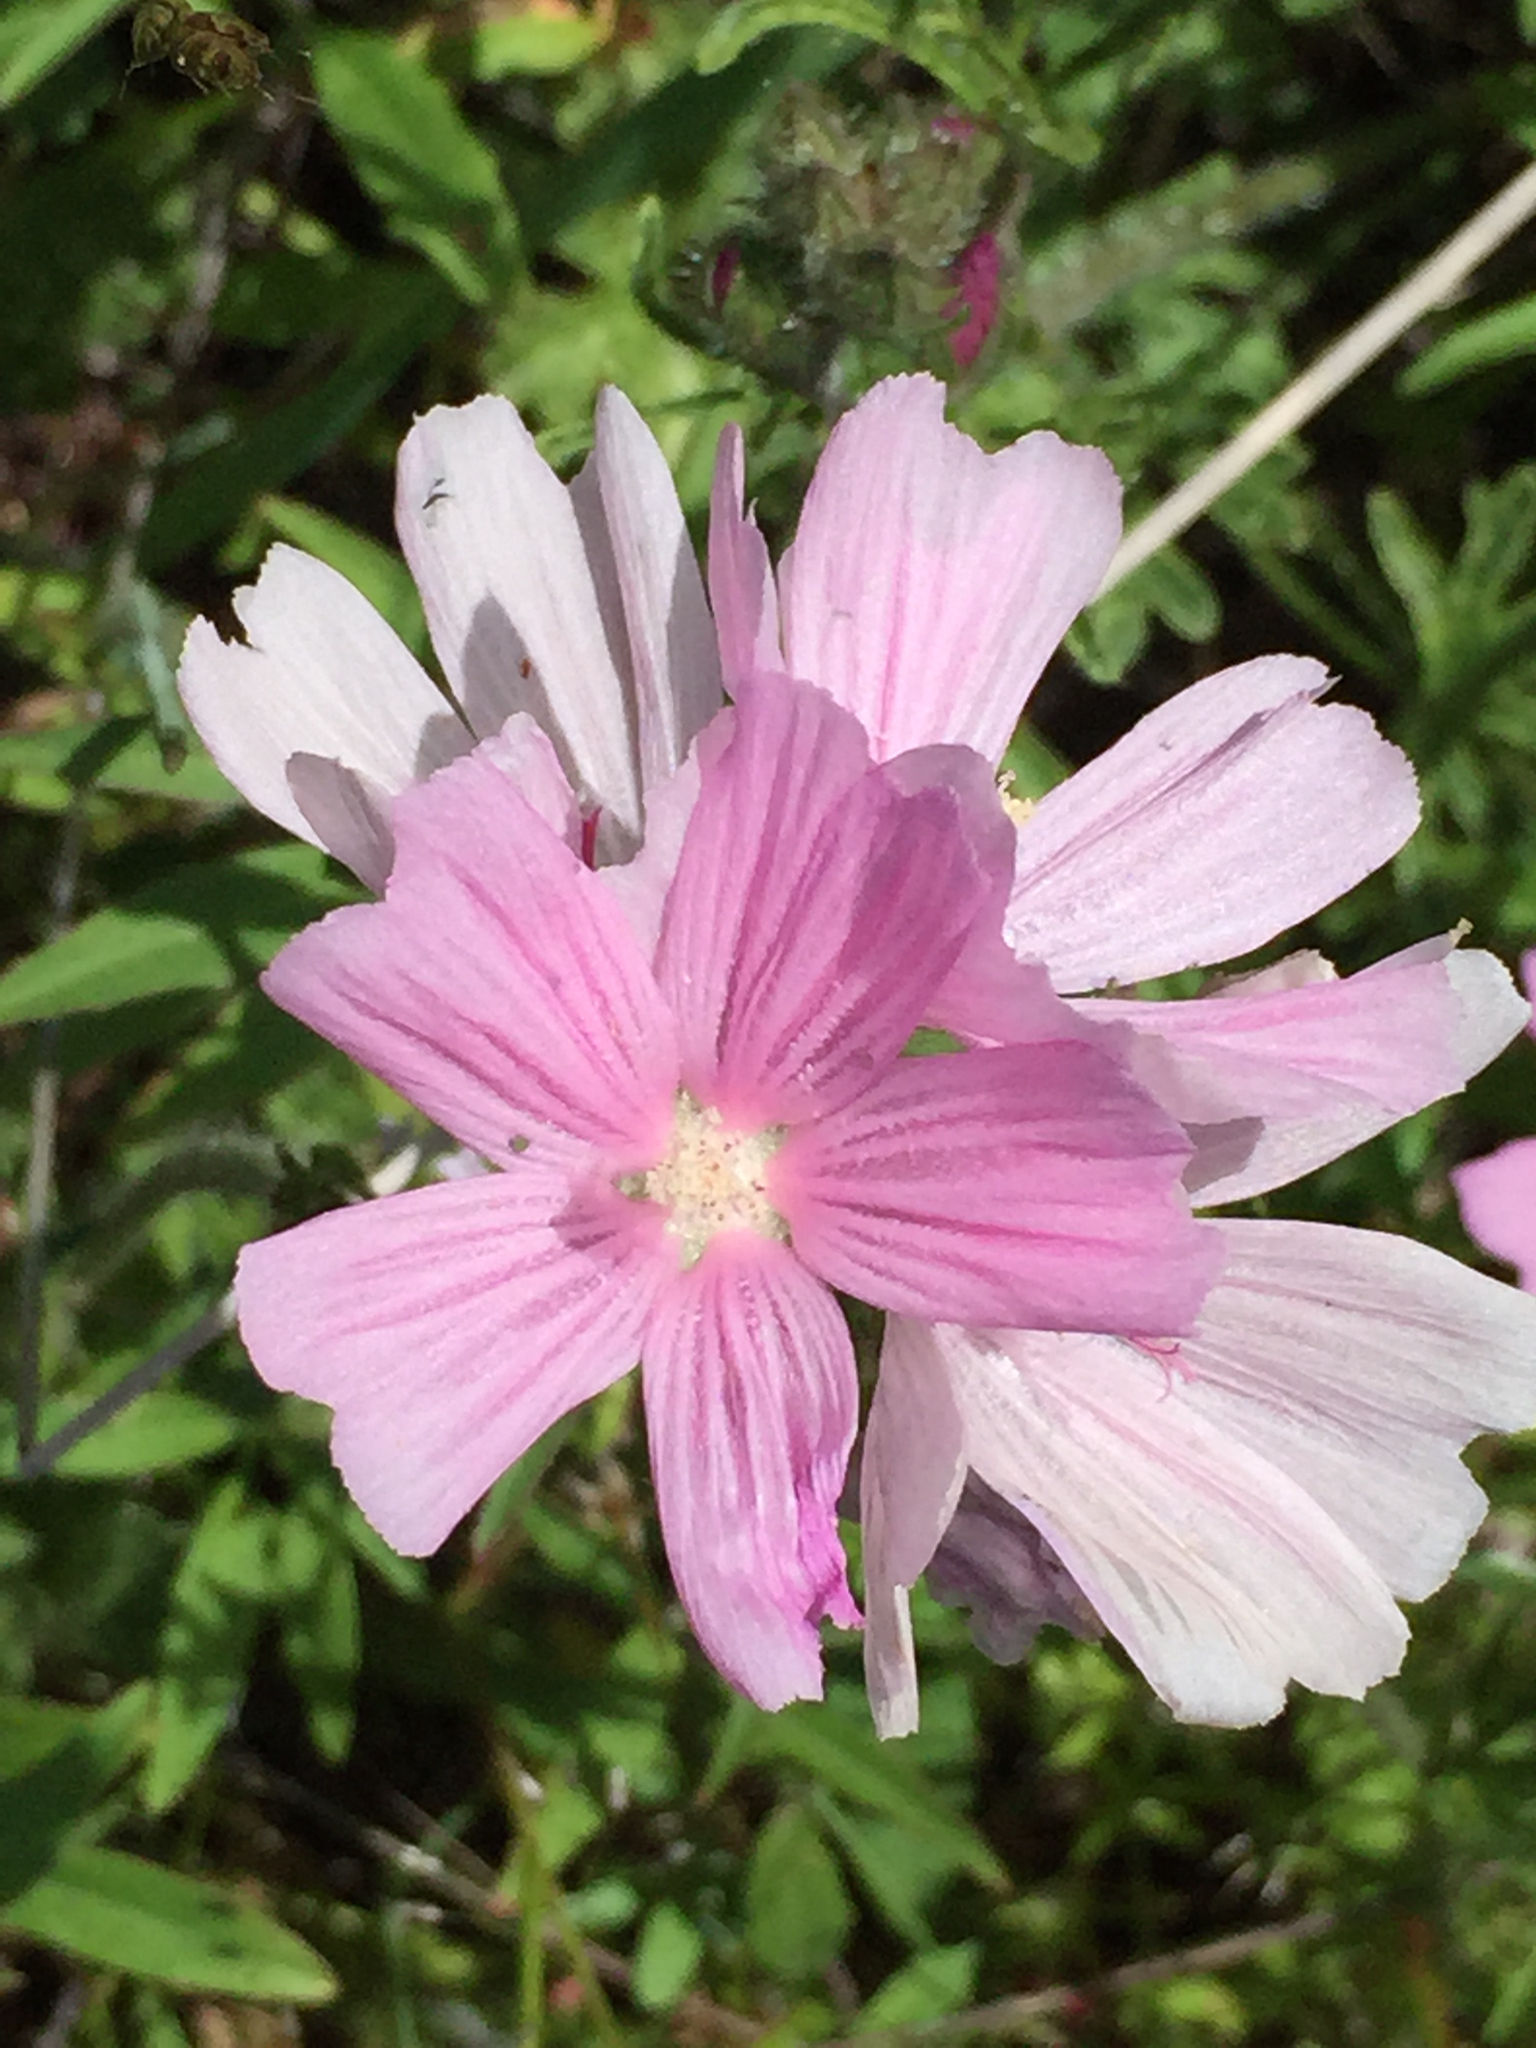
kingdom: Plantae
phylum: Tracheophyta
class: Magnoliopsida
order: Malvales
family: Malvaceae
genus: Sidalcea
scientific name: Sidalcea malviflora
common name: Greek mallow
